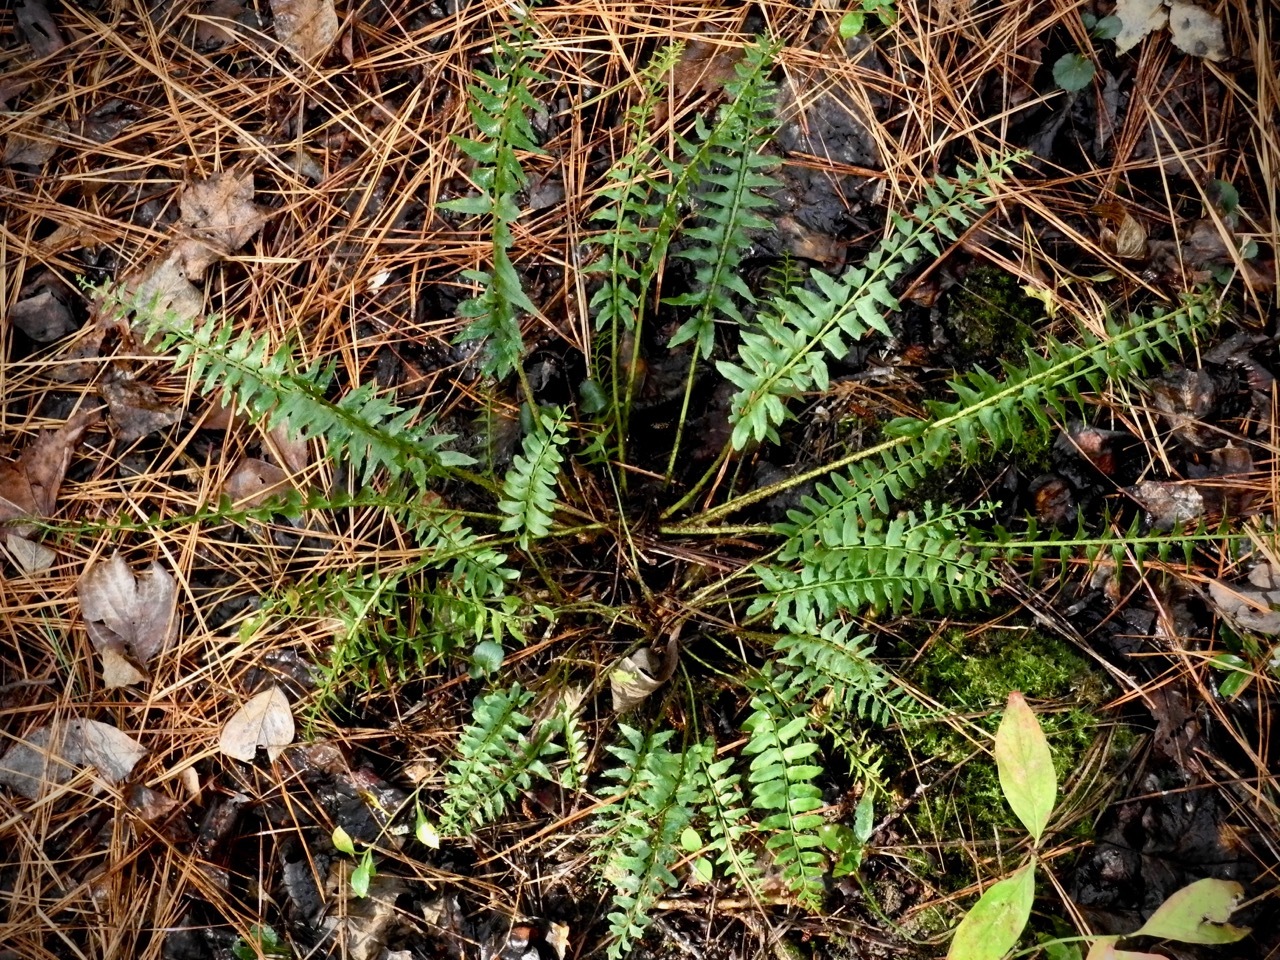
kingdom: Plantae
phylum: Tracheophyta
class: Polypodiopsida
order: Polypodiales
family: Dryopteridaceae
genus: Polystichum
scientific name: Polystichum acrostichoides
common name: Christmas fern
